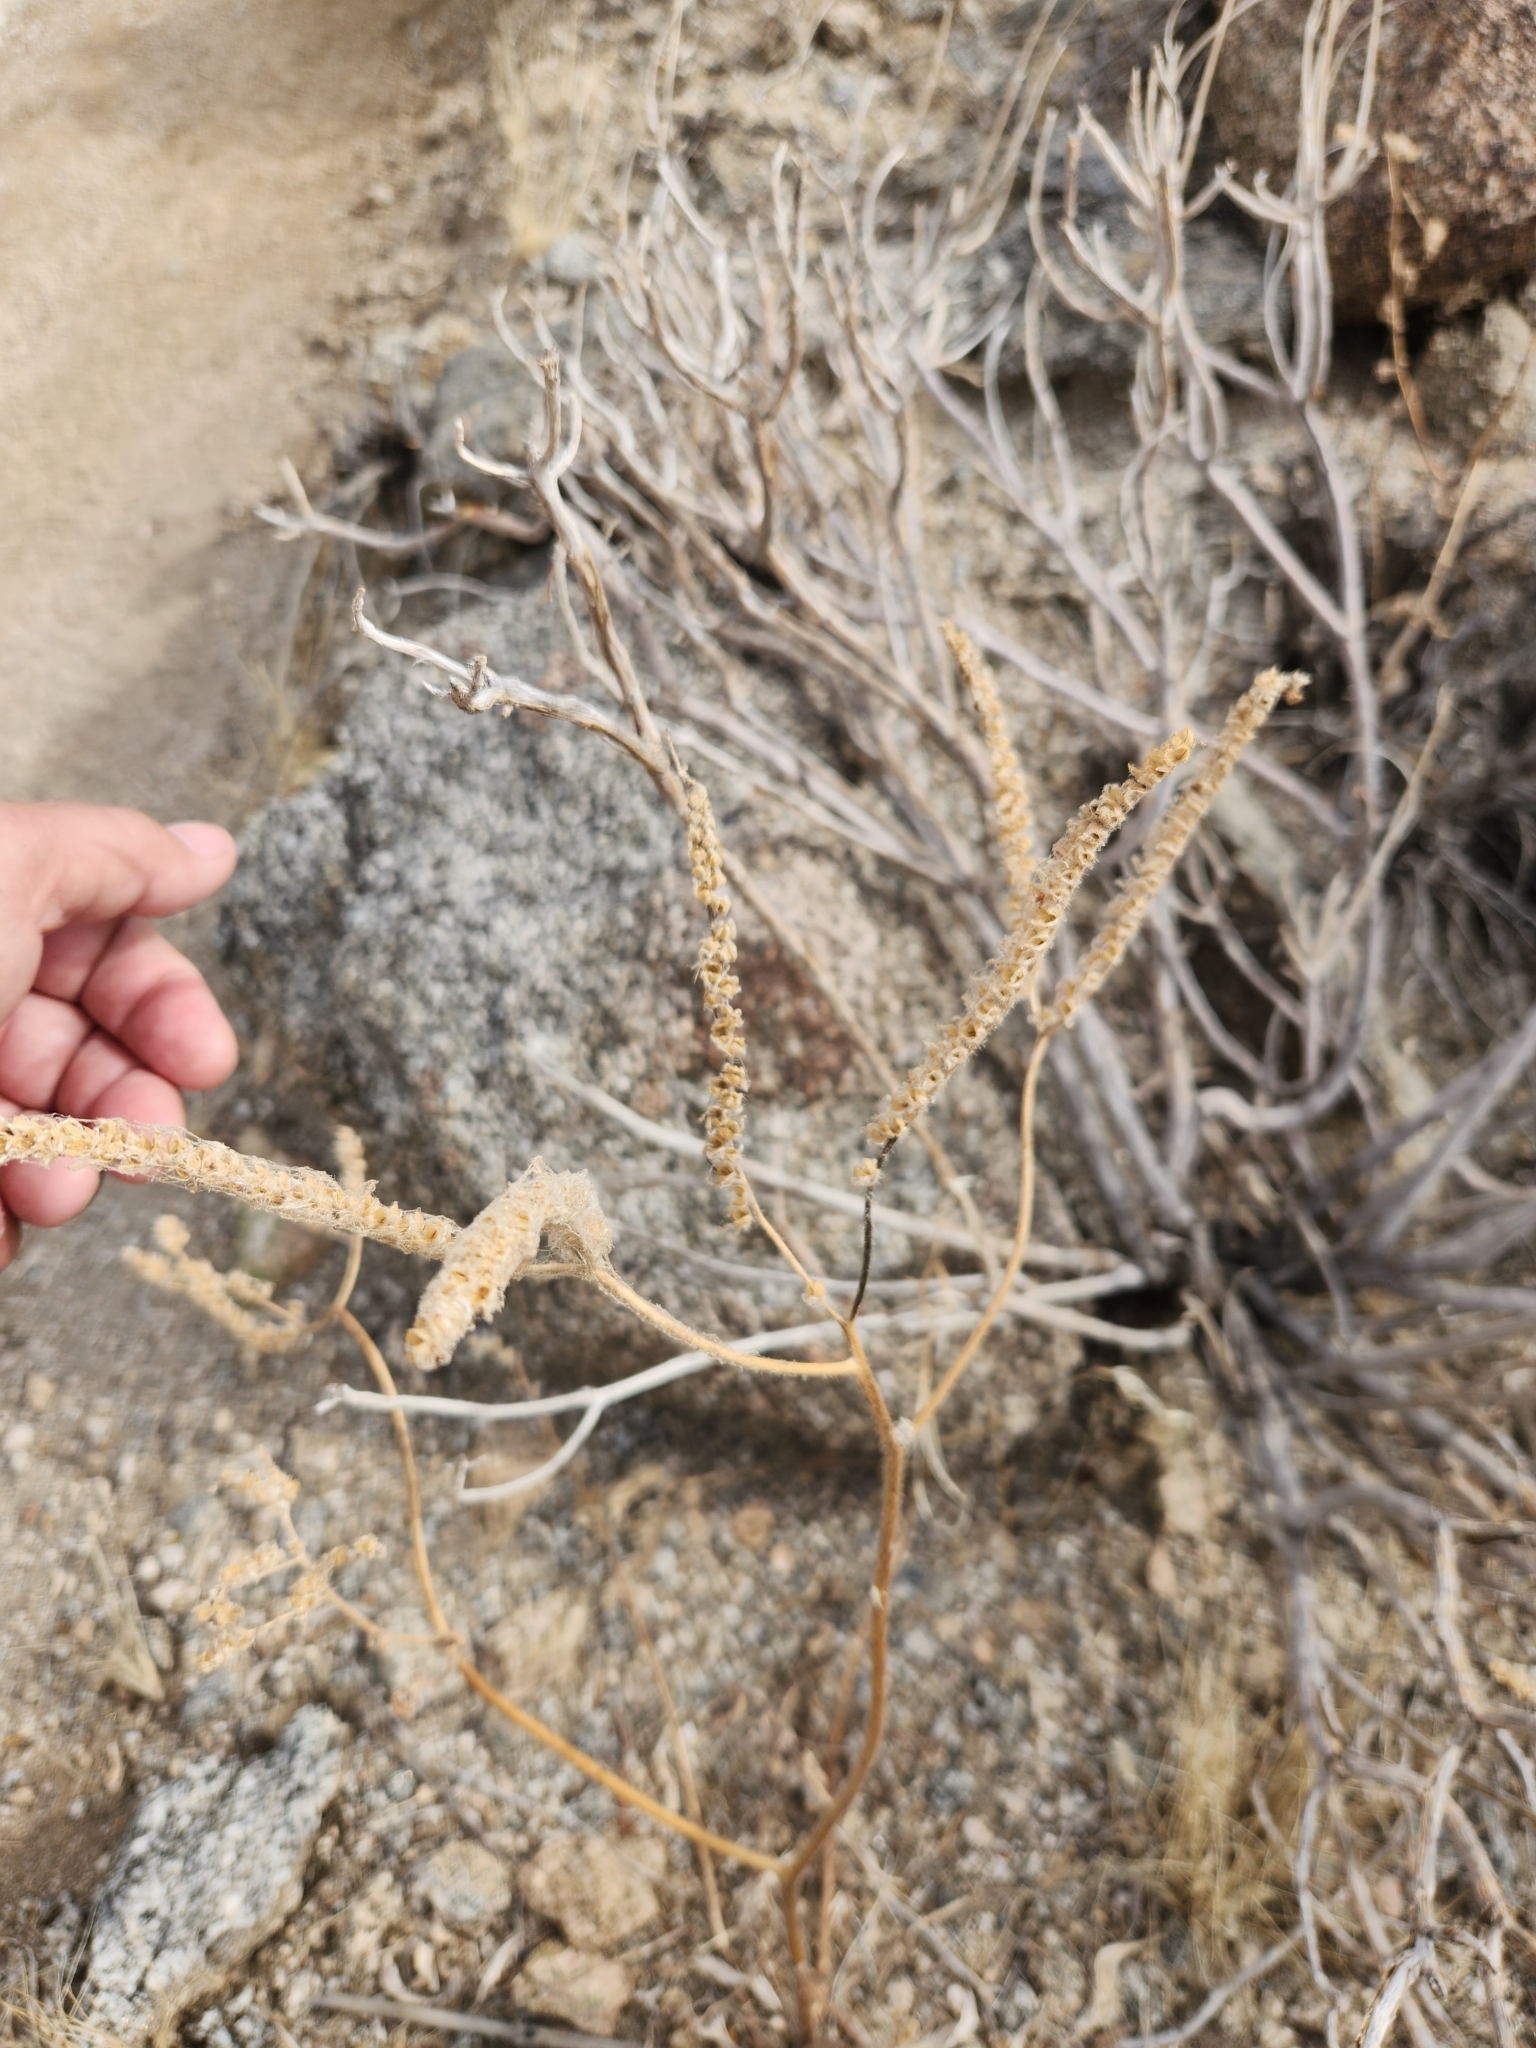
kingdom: Plantae
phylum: Tracheophyta
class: Magnoliopsida
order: Caryophyllales
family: Amaranthaceae
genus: Amaranthus
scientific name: Amaranthus fimbriatus
